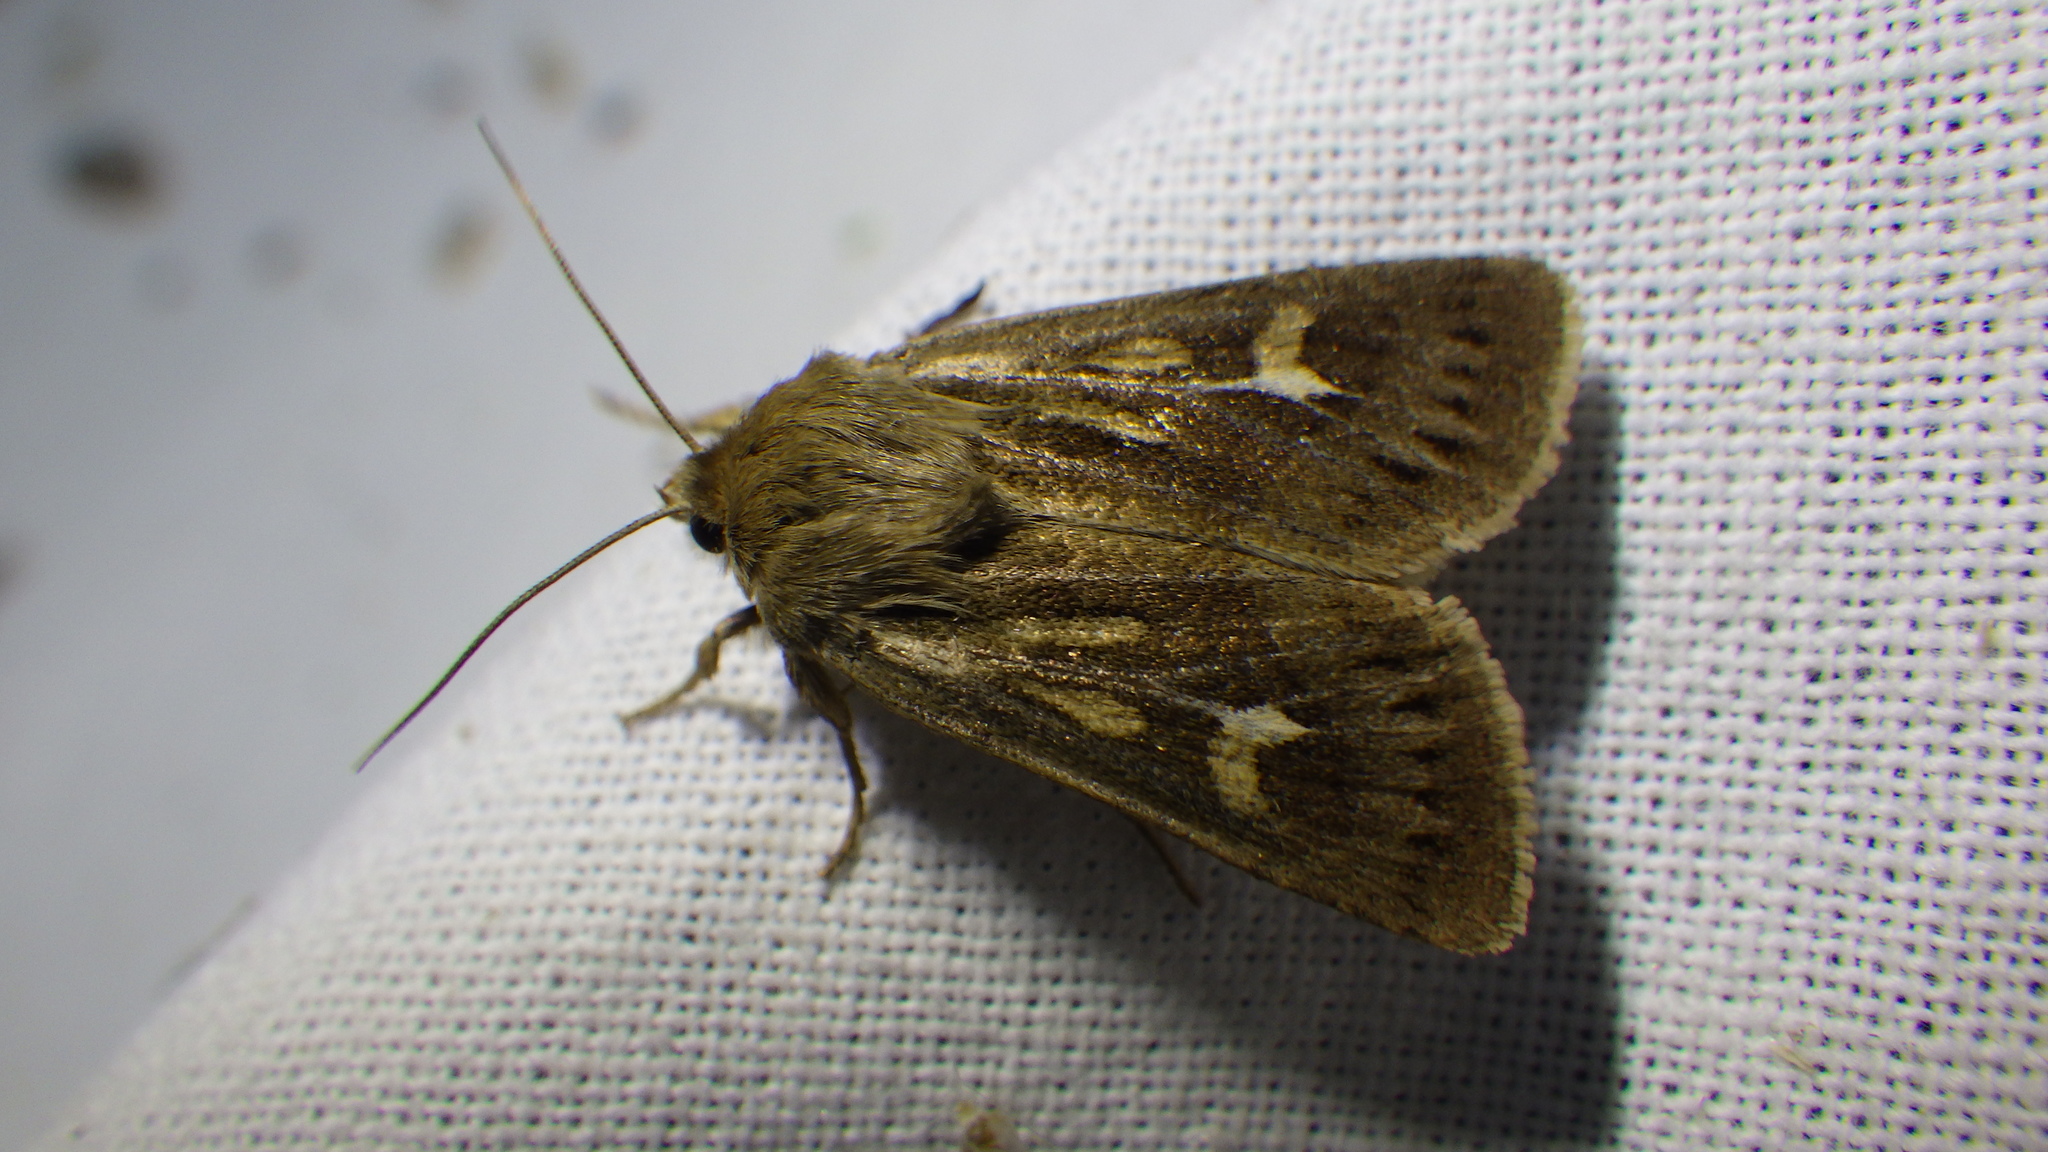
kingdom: Animalia
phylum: Arthropoda
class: Insecta
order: Lepidoptera
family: Noctuidae
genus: Cerapteryx
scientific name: Cerapteryx graminis
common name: Antler moth
